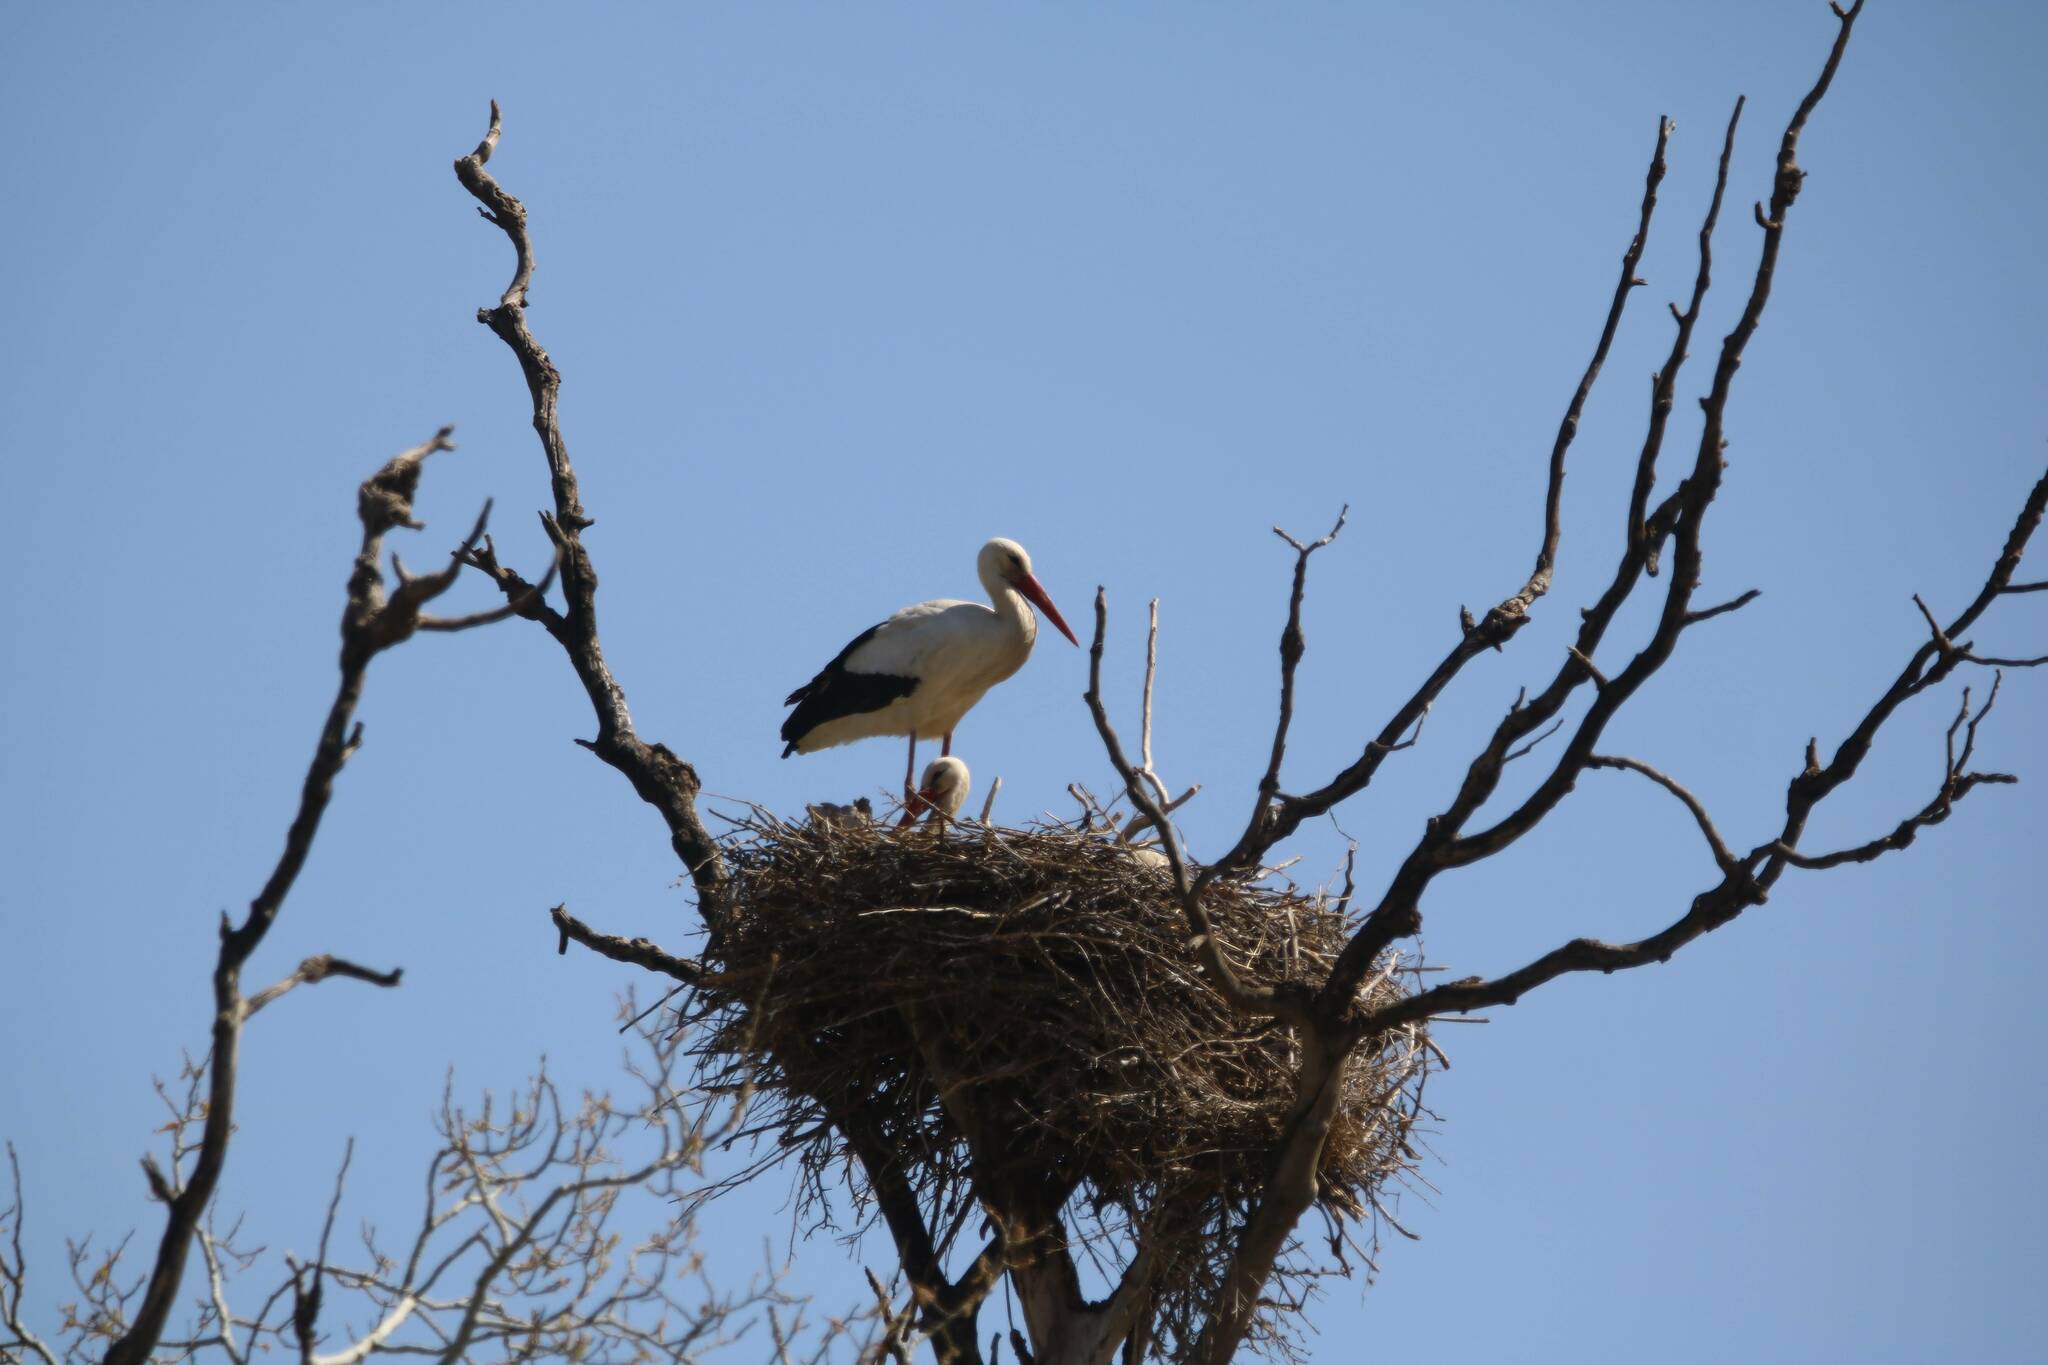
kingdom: Animalia
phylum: Chordata
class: Aves
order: Ciconiiformes
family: Ciconiidae
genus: Ciconia
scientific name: Ciconia ciconia
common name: White stork
